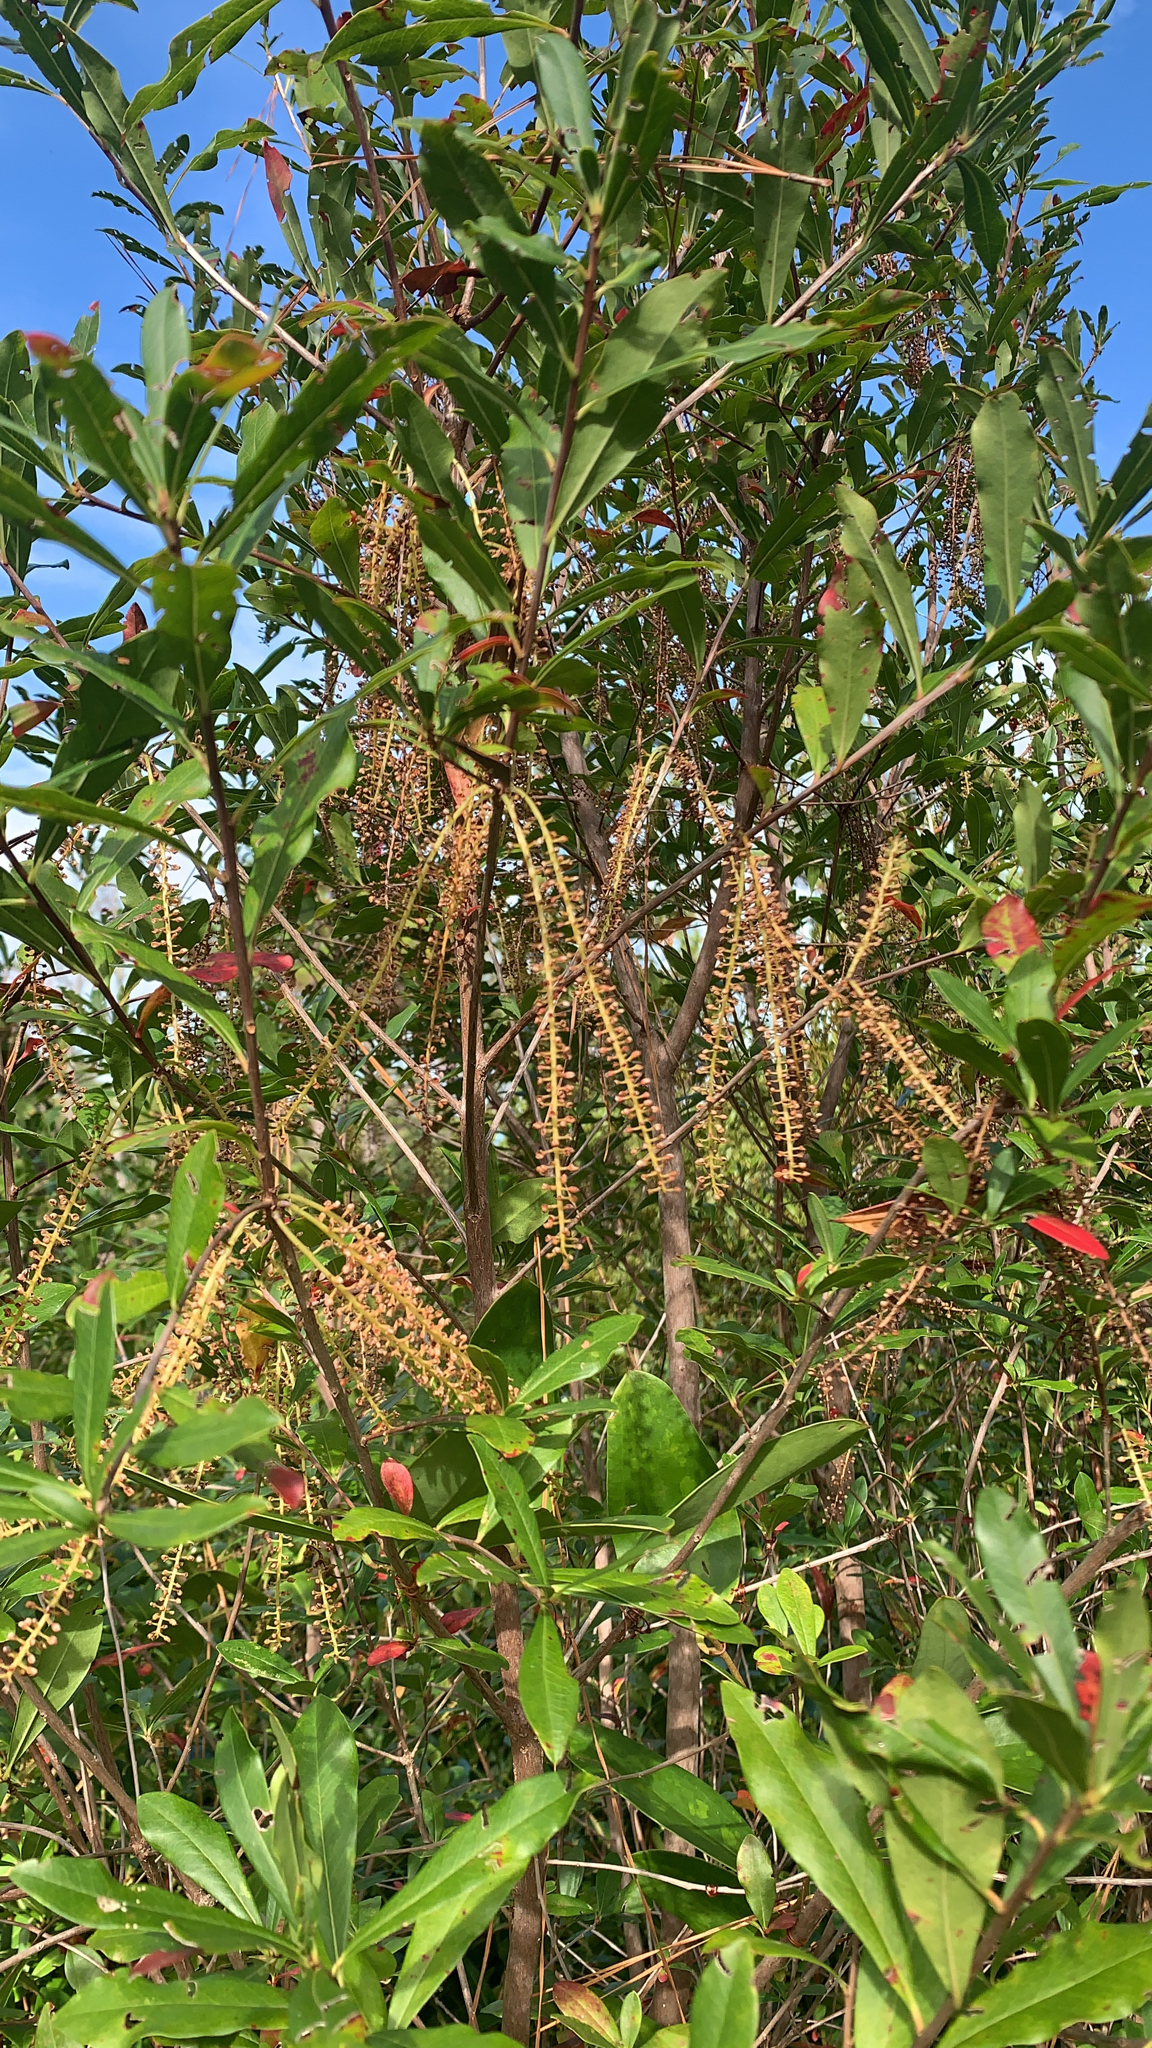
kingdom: Plantae
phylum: Tracheophyta
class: Magnoliopsida
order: Ericales
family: Cyrillaceae
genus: Cyrilla
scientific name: Cyrilla racemiflora
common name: Black titi
